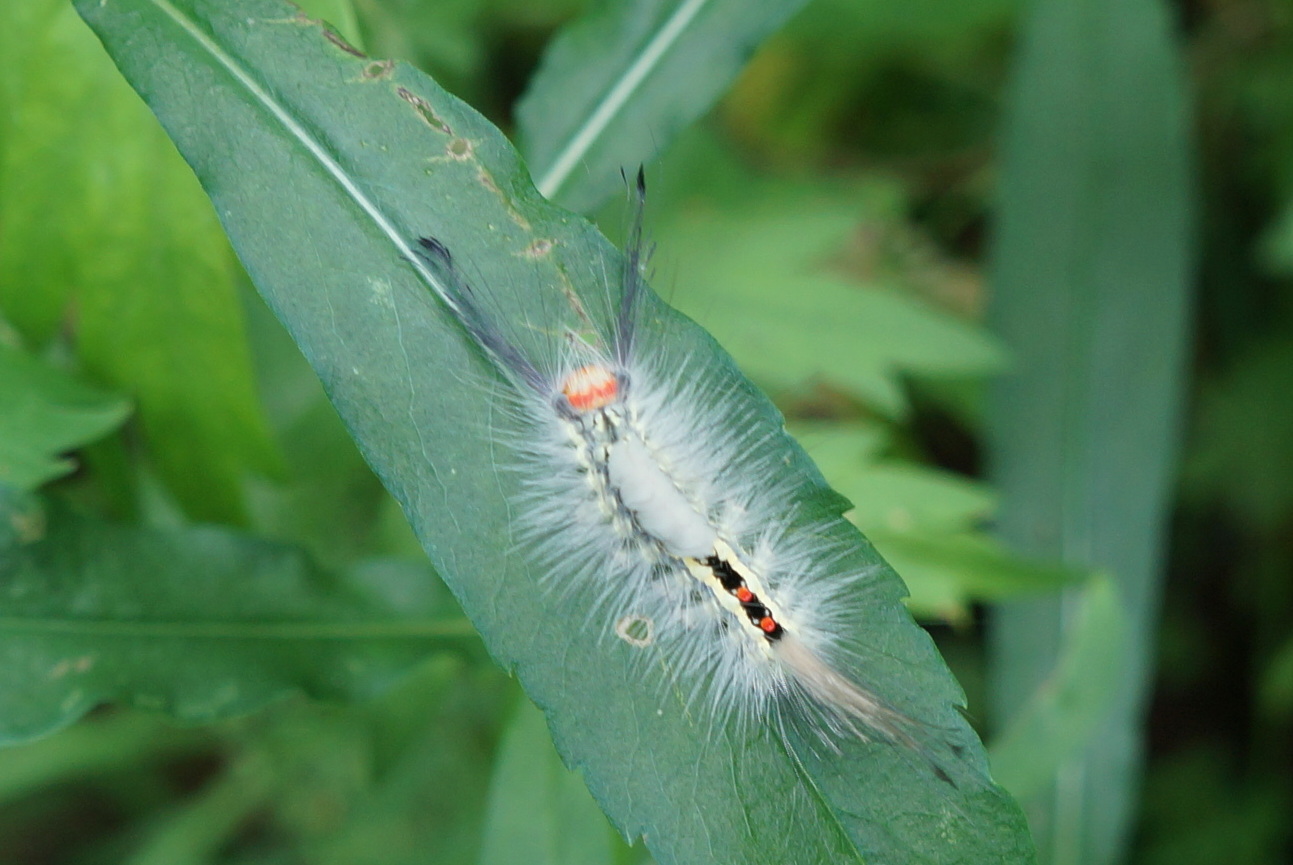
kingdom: Animalia
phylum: Arthropoda
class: Insecta
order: Lepidoptera
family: Erebidae
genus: Orgyia
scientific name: Orgyia leucostigma
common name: White-marked tussock moth
